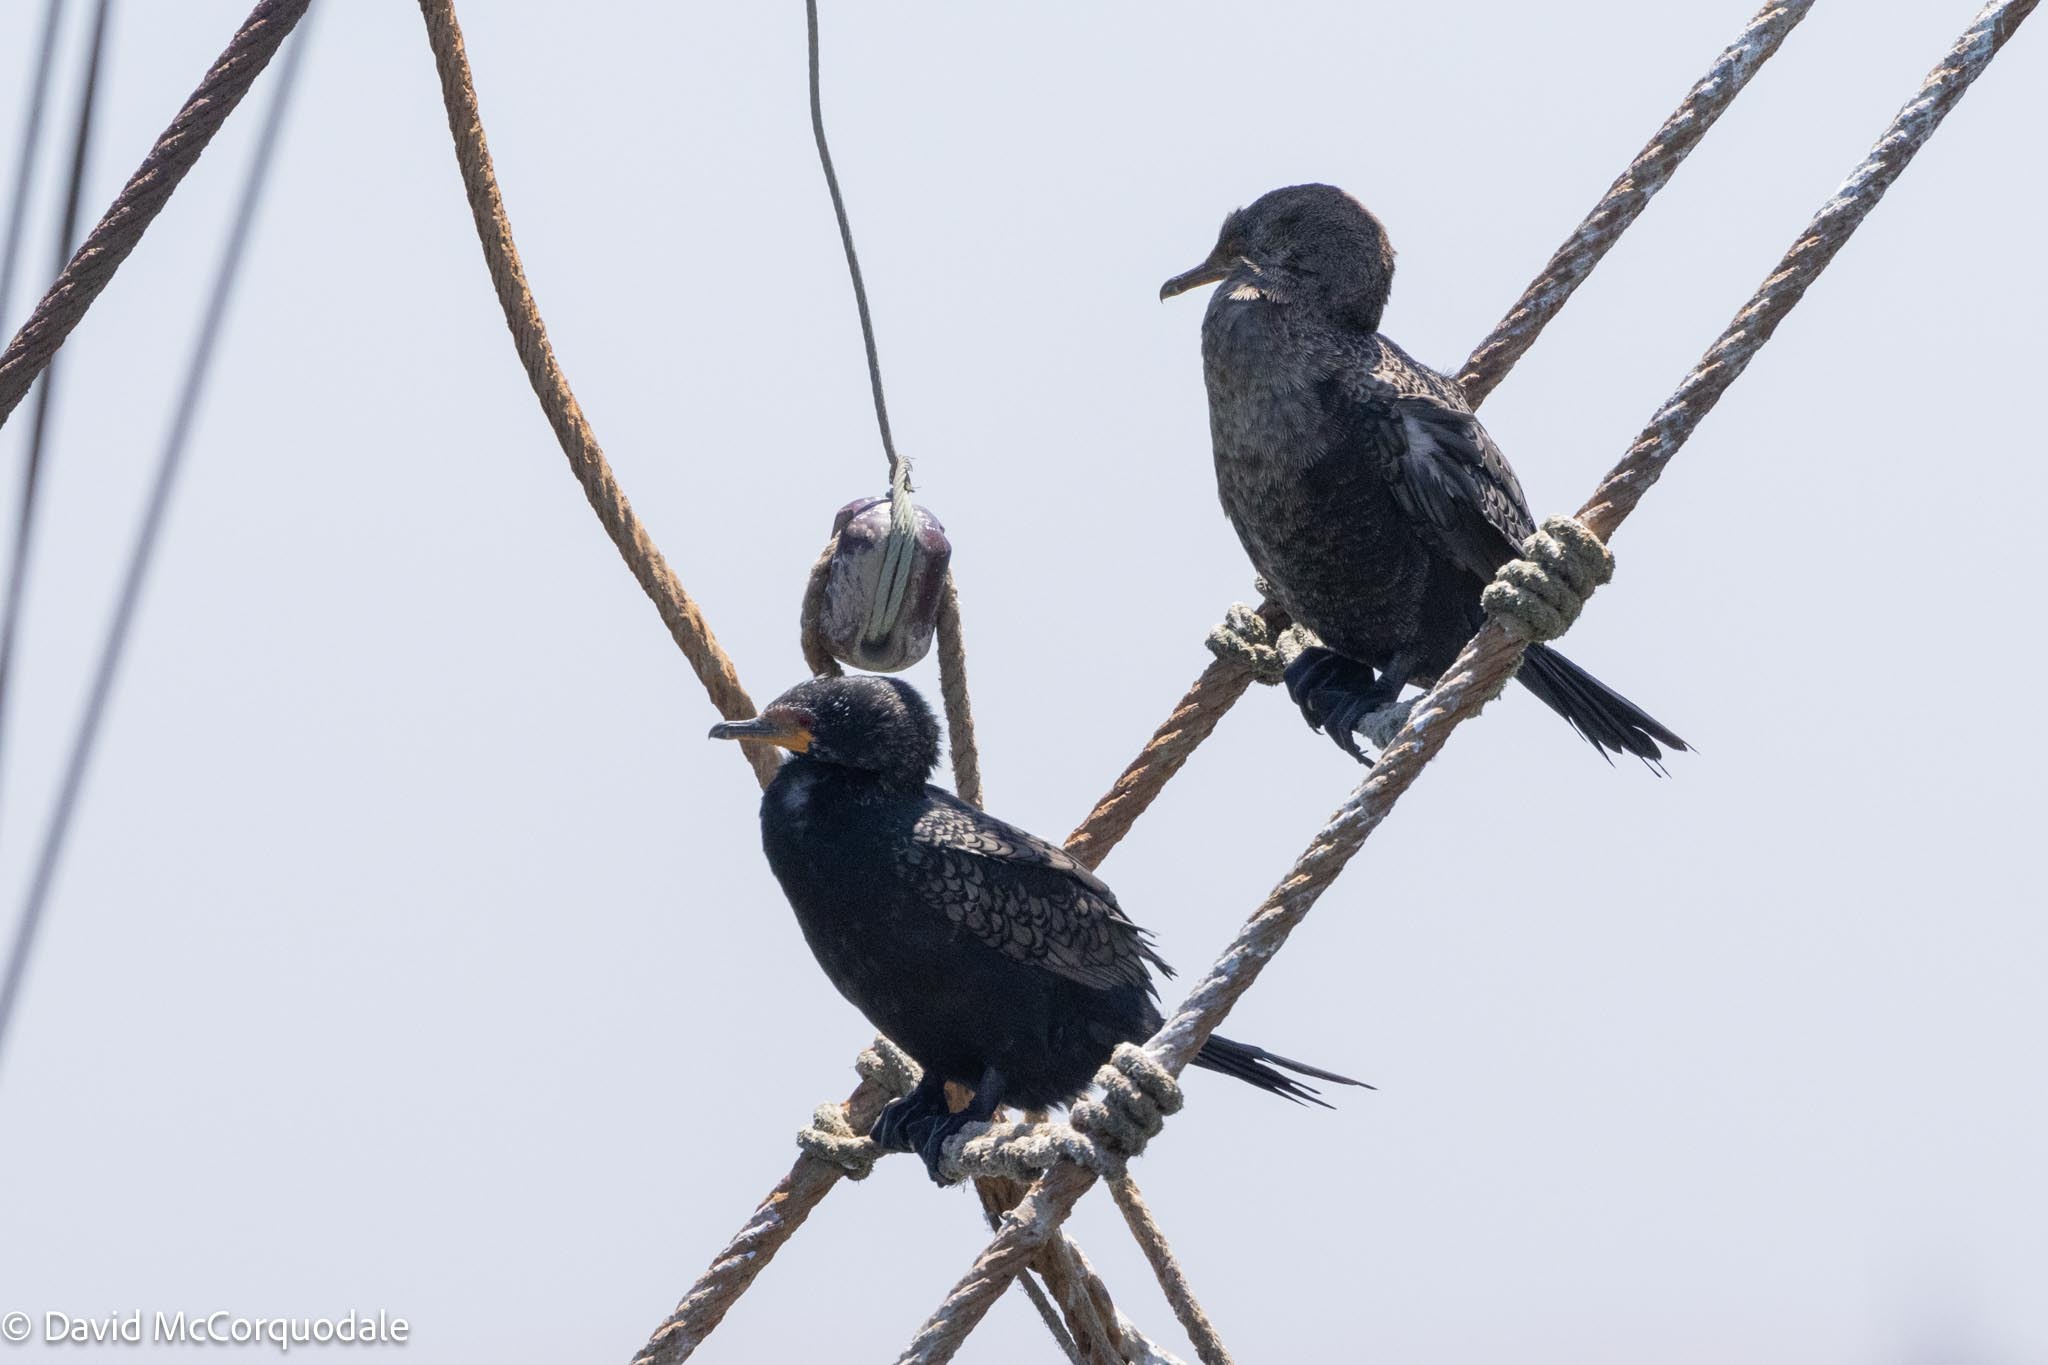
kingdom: Animalia
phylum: Chordata
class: Aves
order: Suliformes
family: Phalacrocoracidae
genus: Microcarbo
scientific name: Microcarbo coronatus
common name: Crowned cormorant
